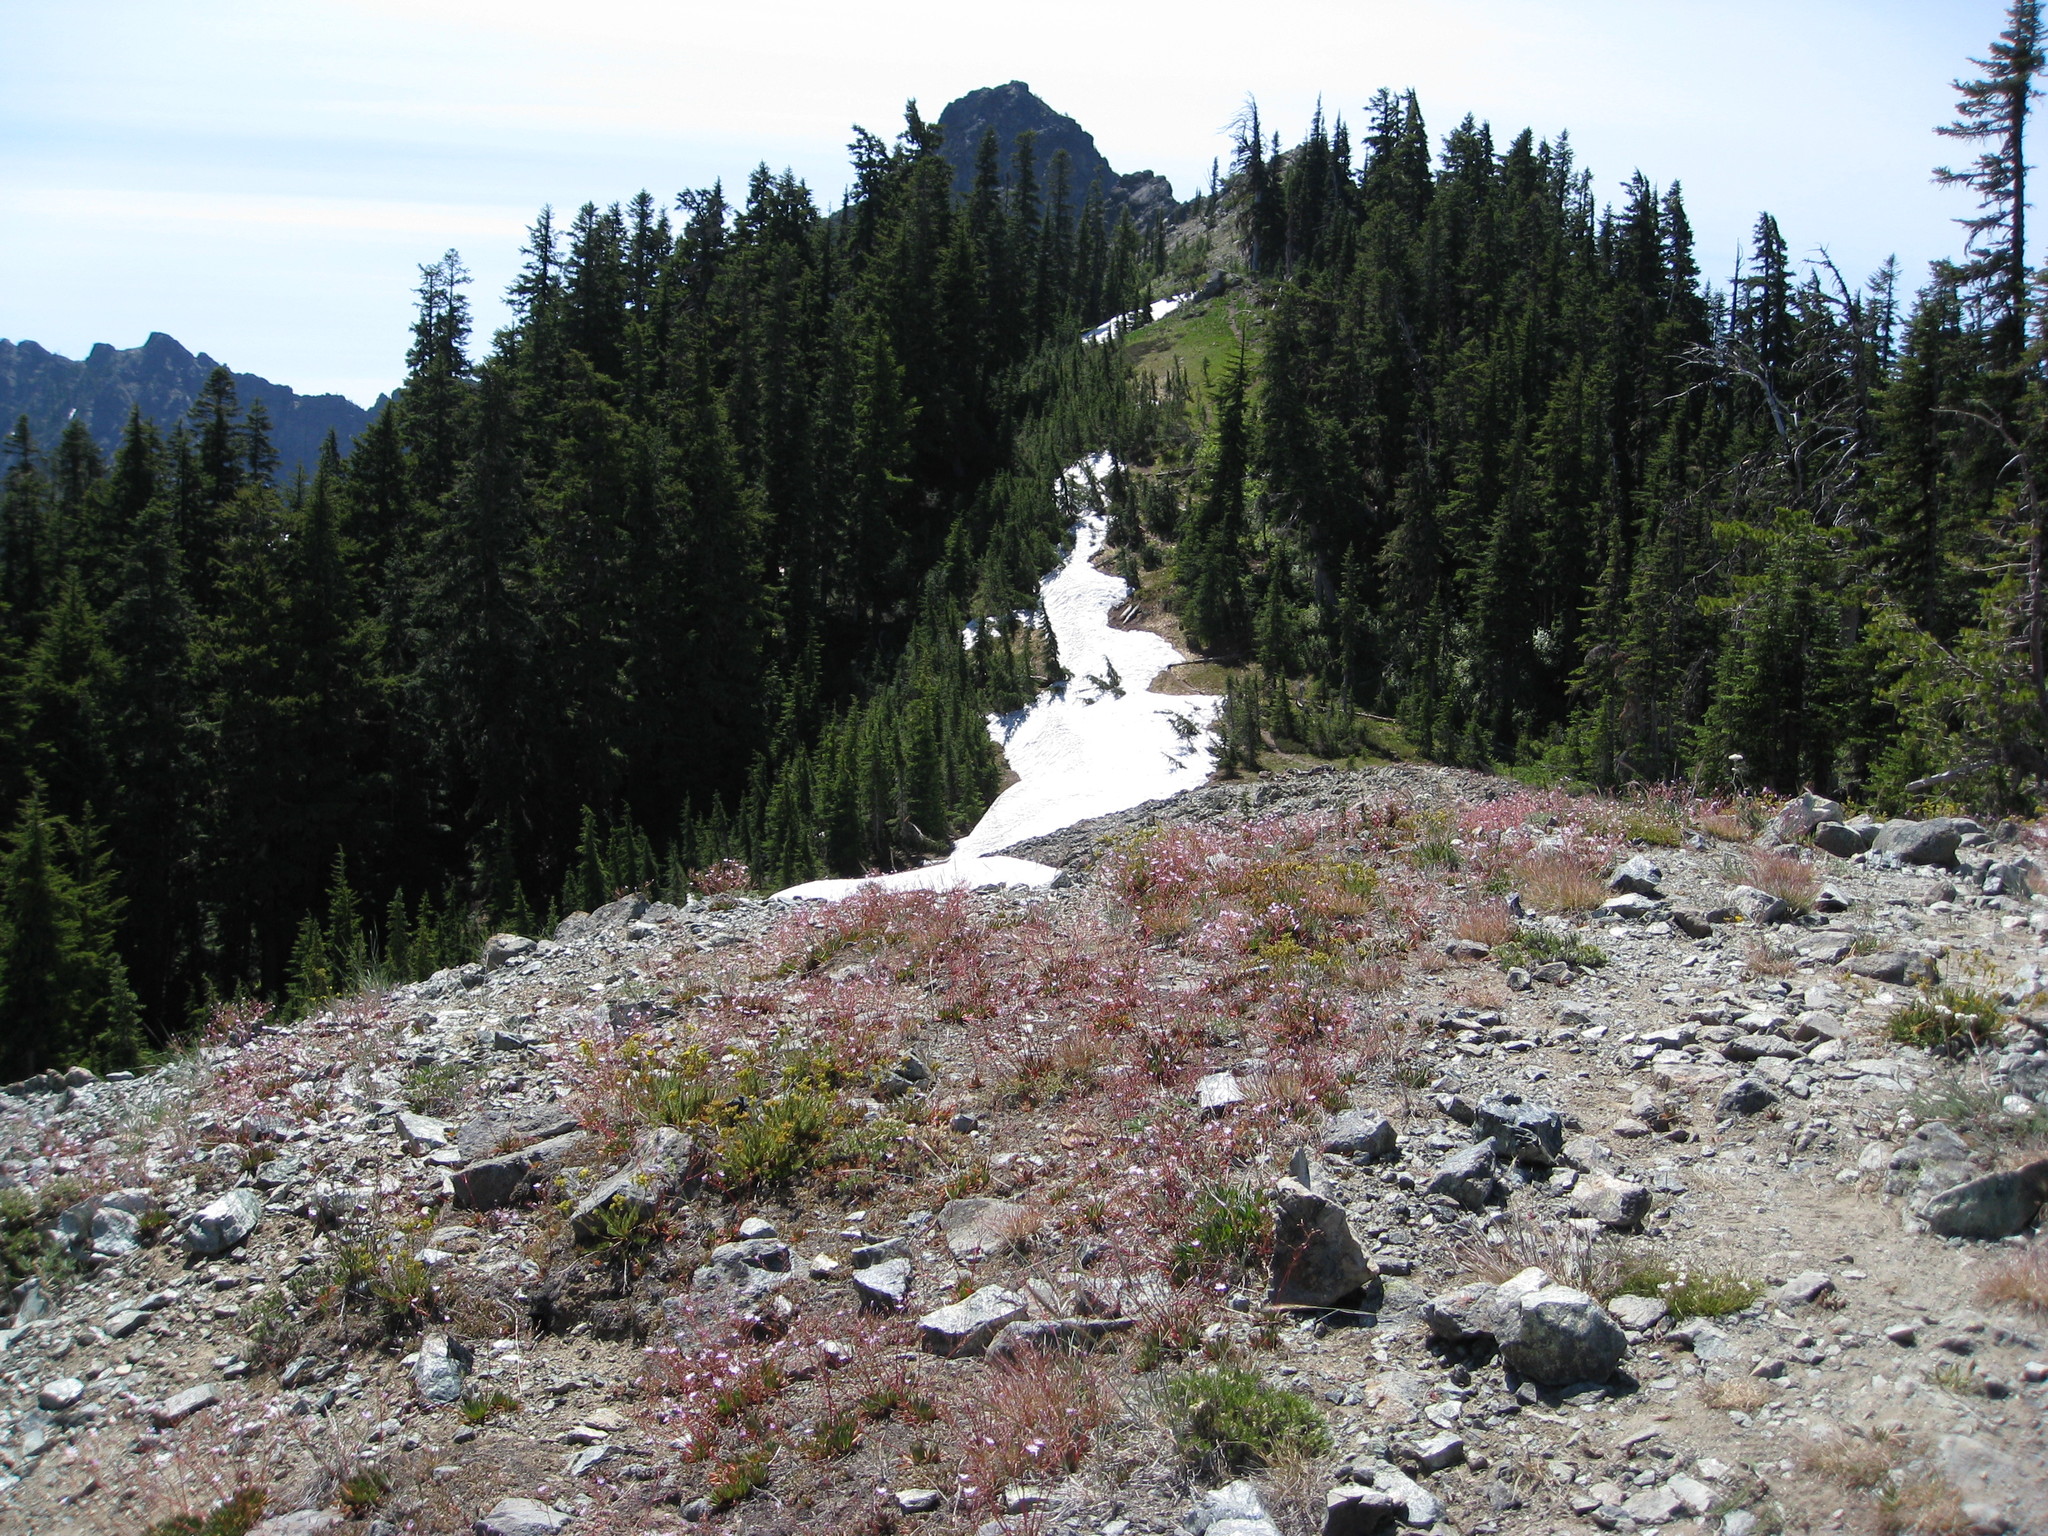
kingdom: Plantae
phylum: Tracheophyta
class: Magnoliopsida
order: Rosales
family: Rosaceae
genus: Potentilla
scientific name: Potentilla tweedyi
